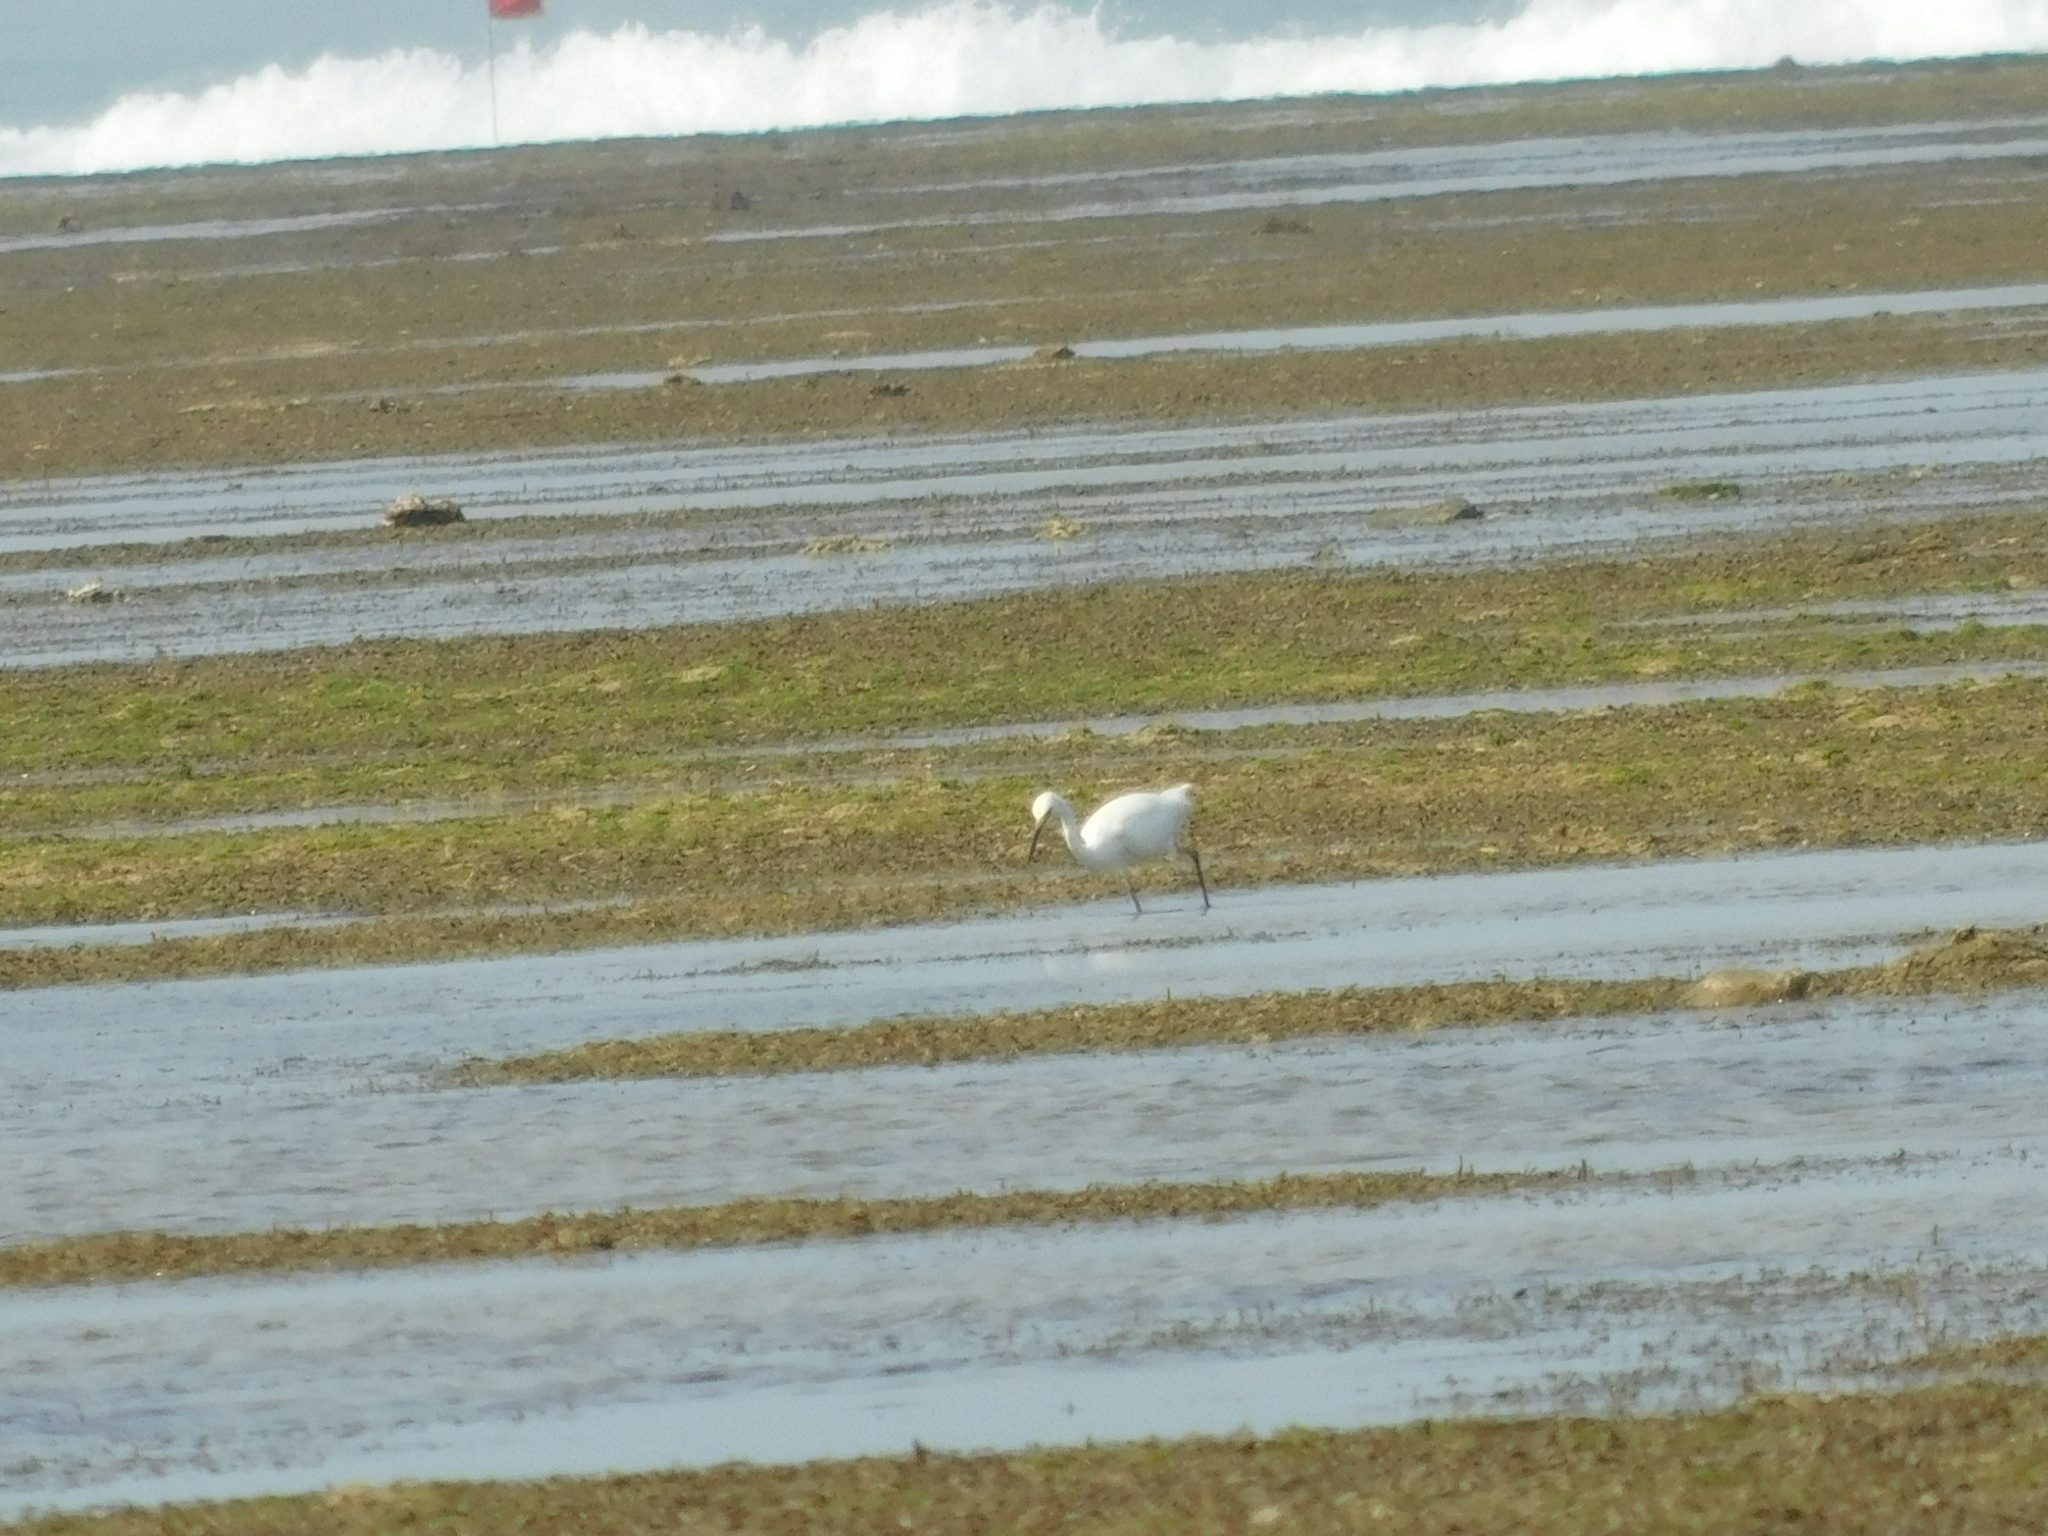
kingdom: Animalia
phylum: Chordata
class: Aves
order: Pelecaniformes
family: Ardeidae
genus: Egretta
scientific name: Egretta garzetta
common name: Little egret
